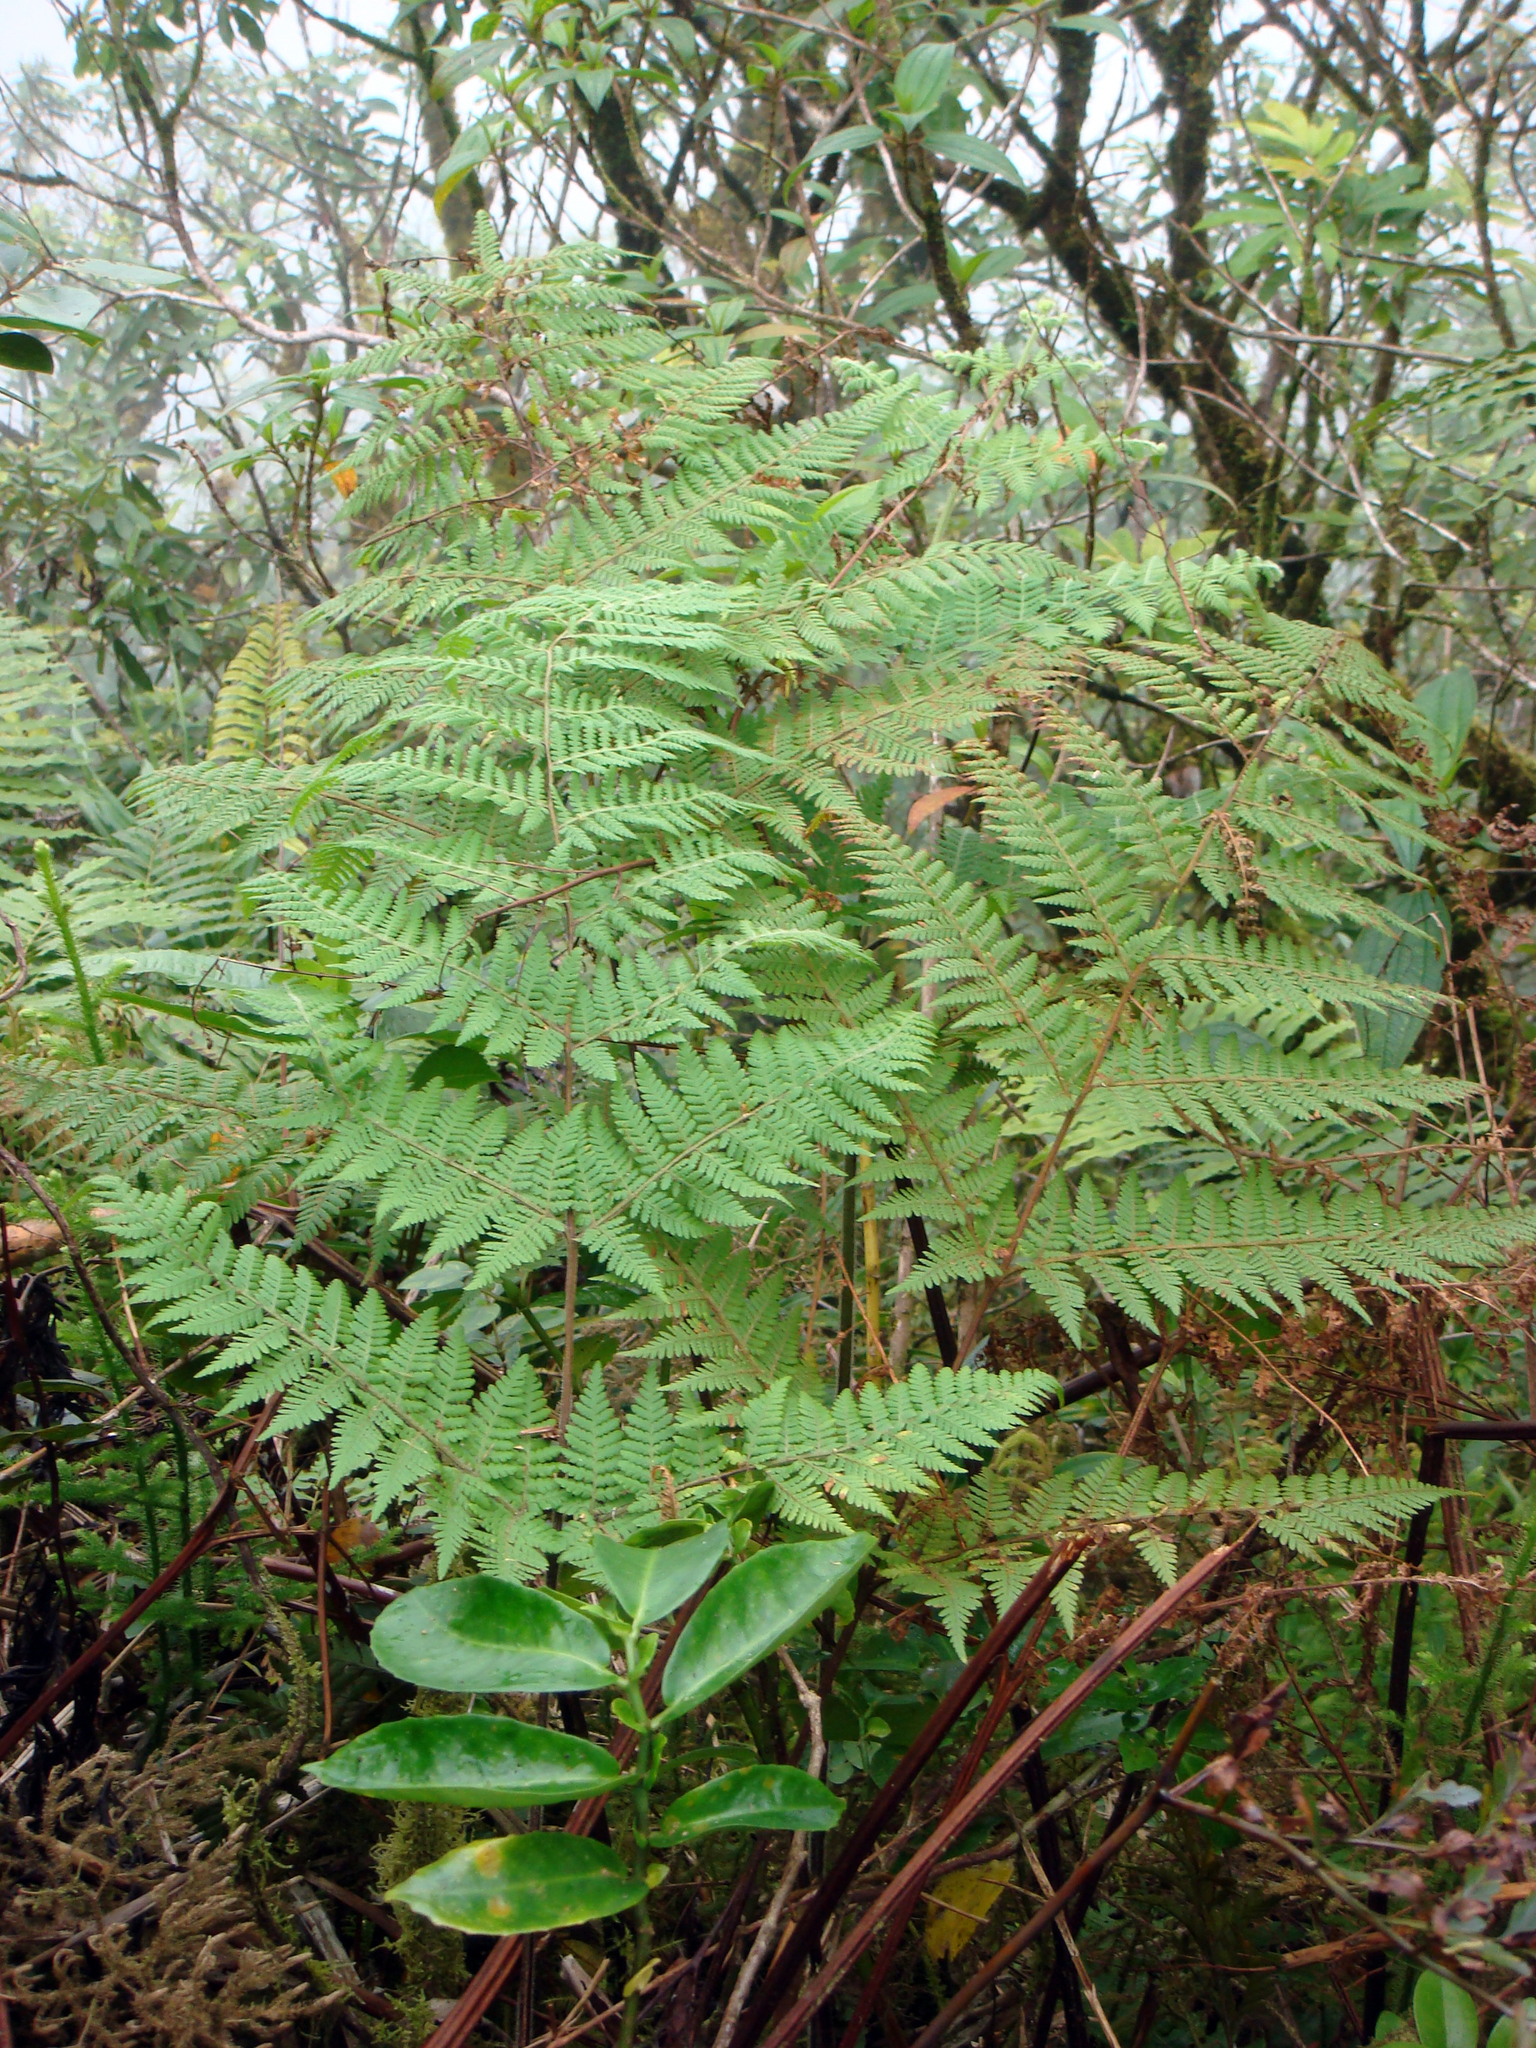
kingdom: Plantae
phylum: Tracheophyta
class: Polypodiopsida
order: Polypodiales
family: Dennstaedtiaceae
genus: Hypolepis
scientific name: Hypolepis dicksonioides
